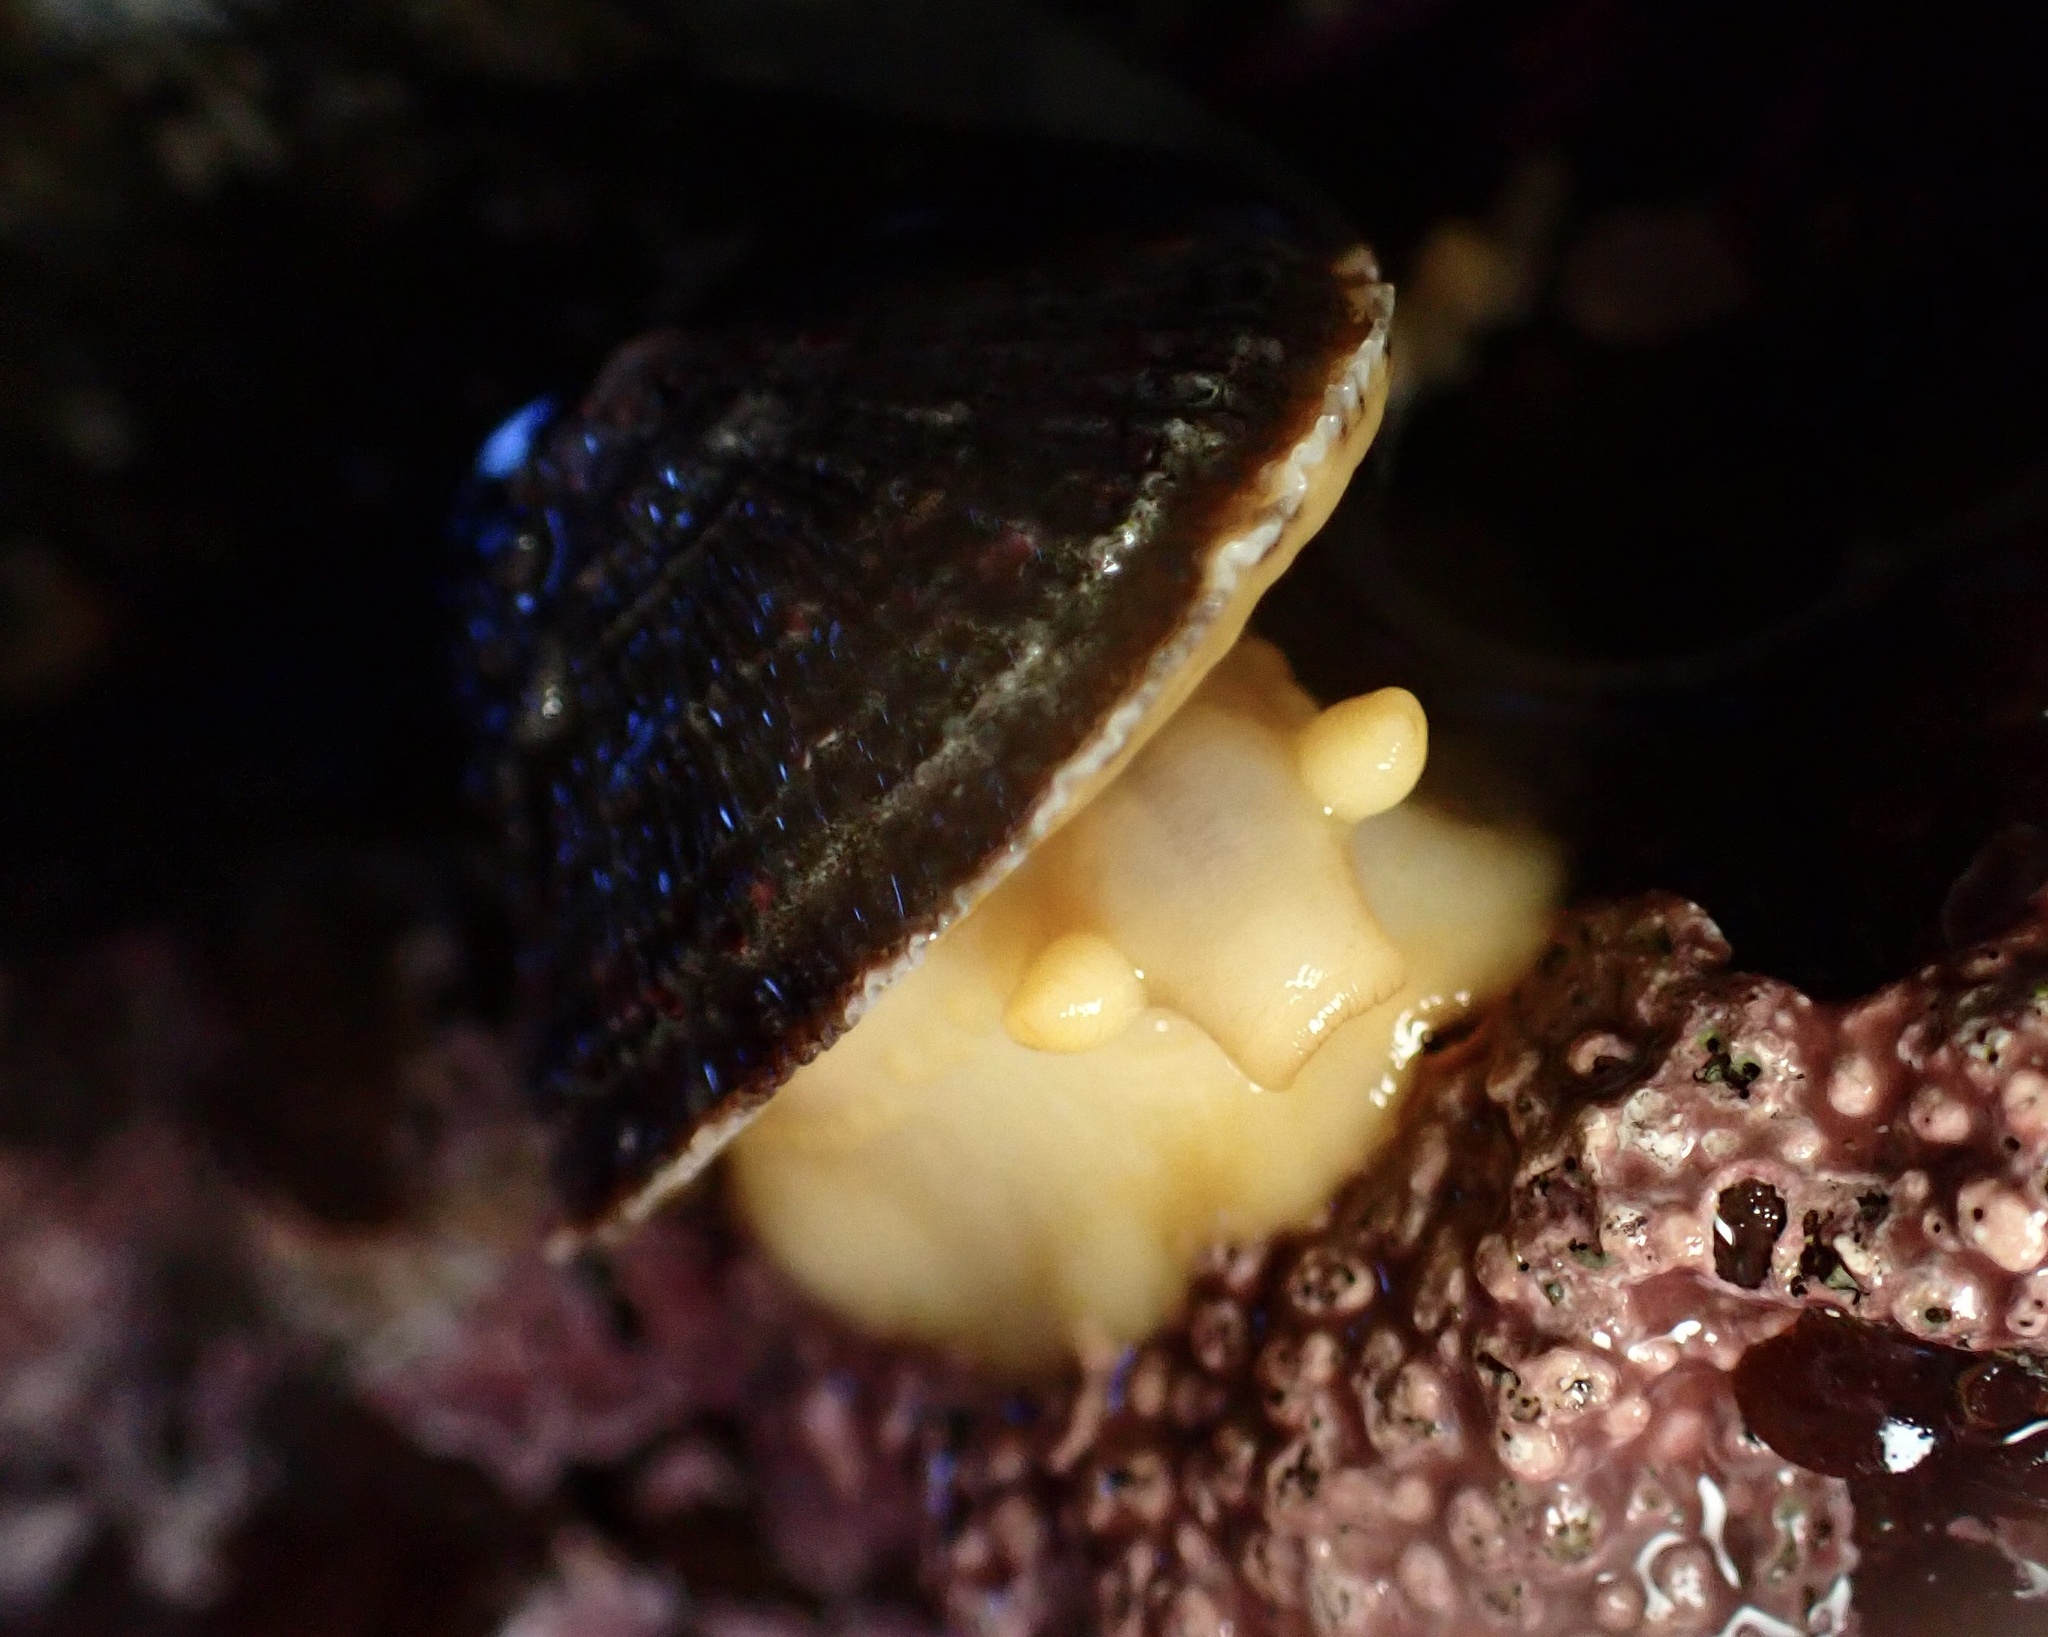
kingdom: Animalia
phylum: Mollusca
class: Gastropoda
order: Lepetellida
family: Fissurellidae
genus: Diodora
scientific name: Diodora aspera
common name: Rough keyhole limpet
